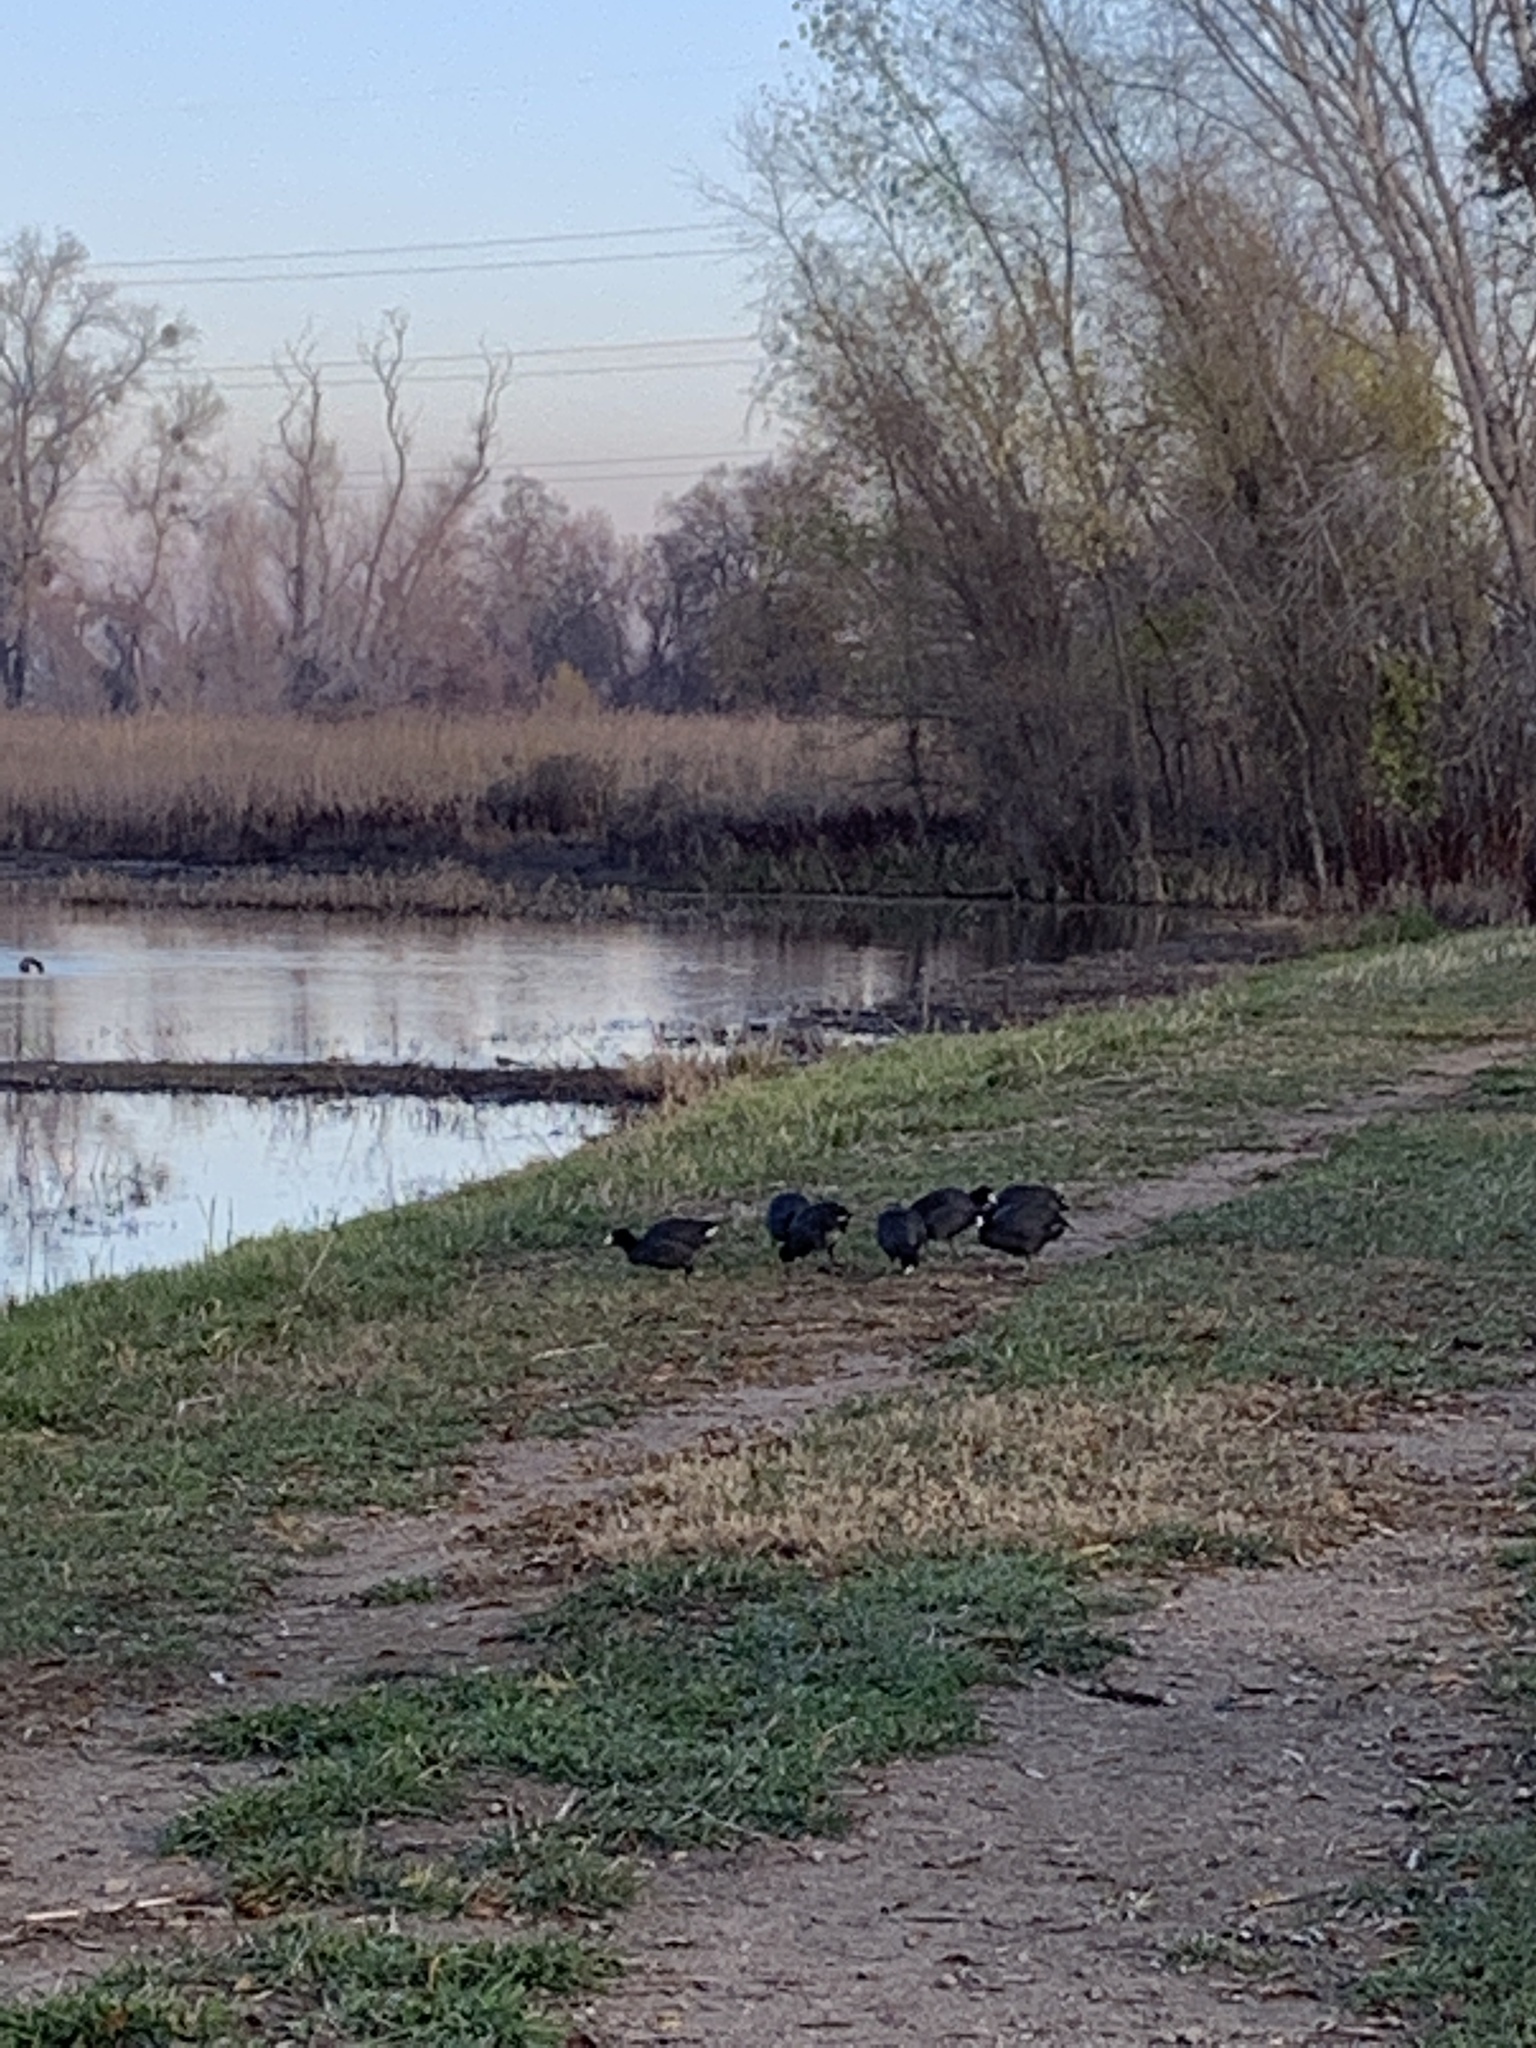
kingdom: Animalia
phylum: Chordata
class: Aves
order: Gruiformes
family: Rallidae
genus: Fulica
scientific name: Fulica americana
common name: American coot
